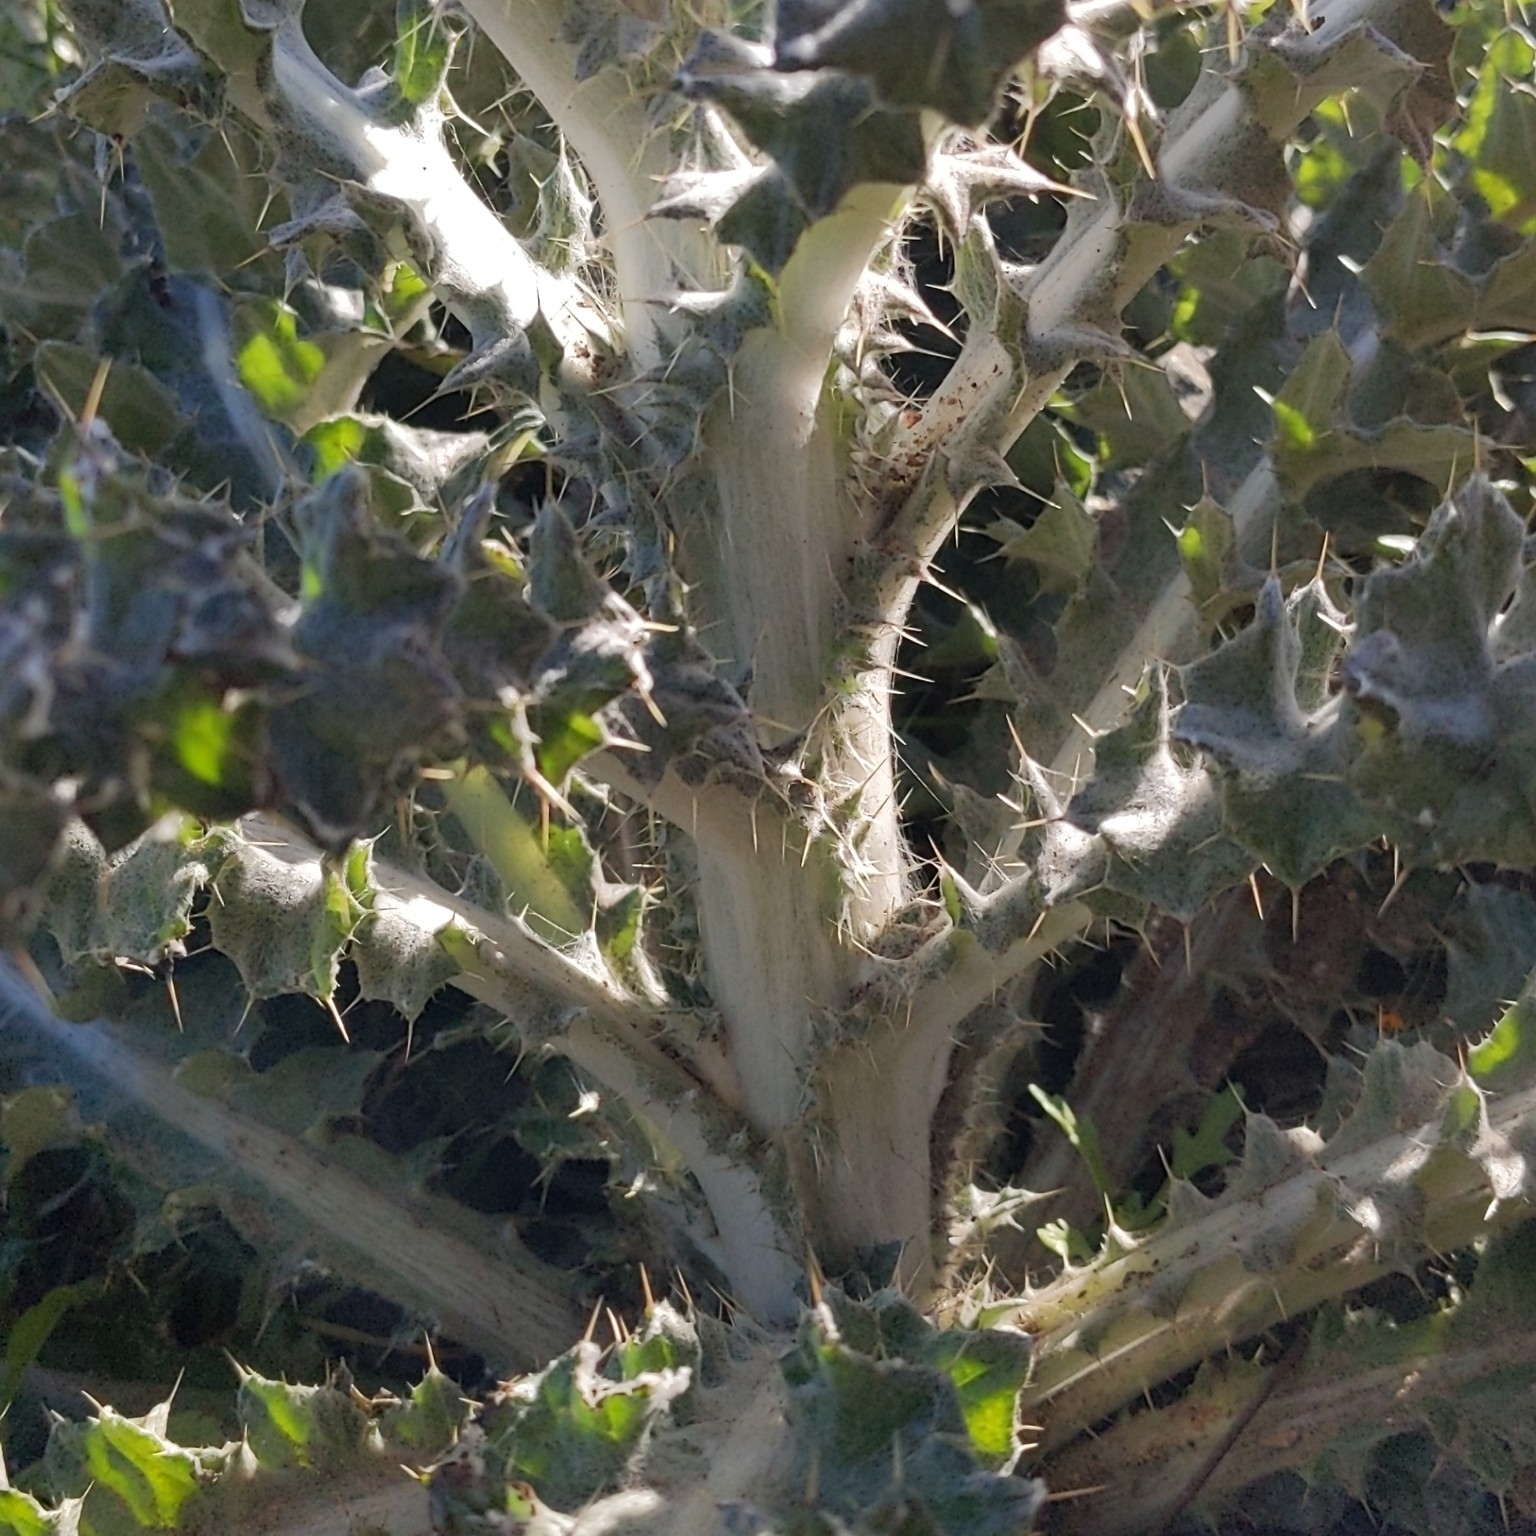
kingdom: Plantae
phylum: Tracheophyta
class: Magnoliopsida
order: Asterales
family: Asteraceae
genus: Cirsium
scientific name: Cirsium occidentale
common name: Western thistle
